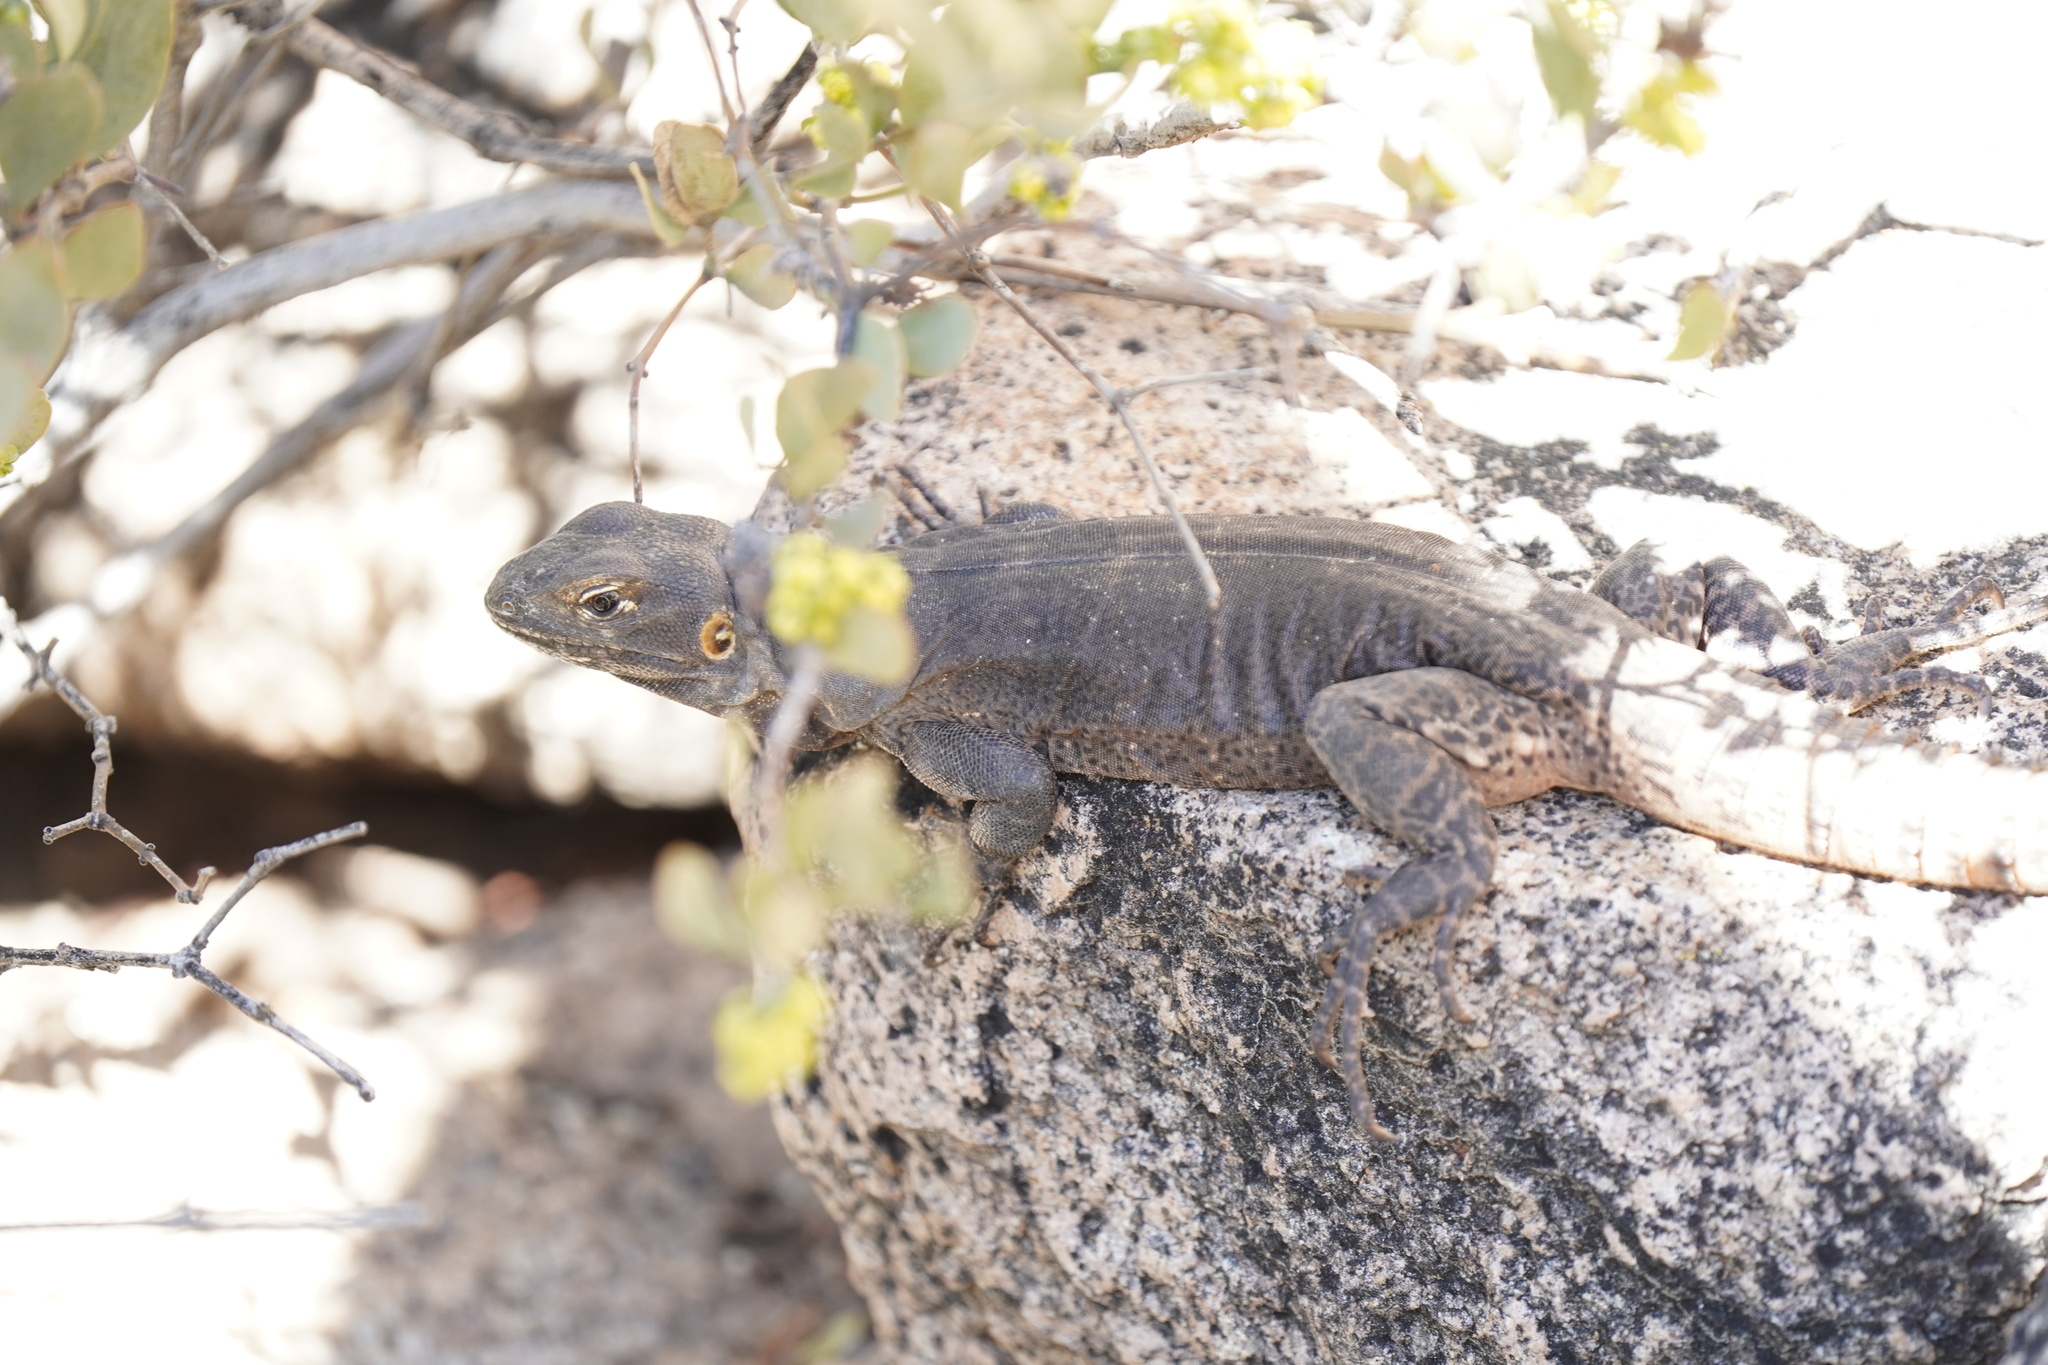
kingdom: Animalia
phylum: Chordata
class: Squamata
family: Iguanidae
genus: Ctenosaura
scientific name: Ctenosaura
